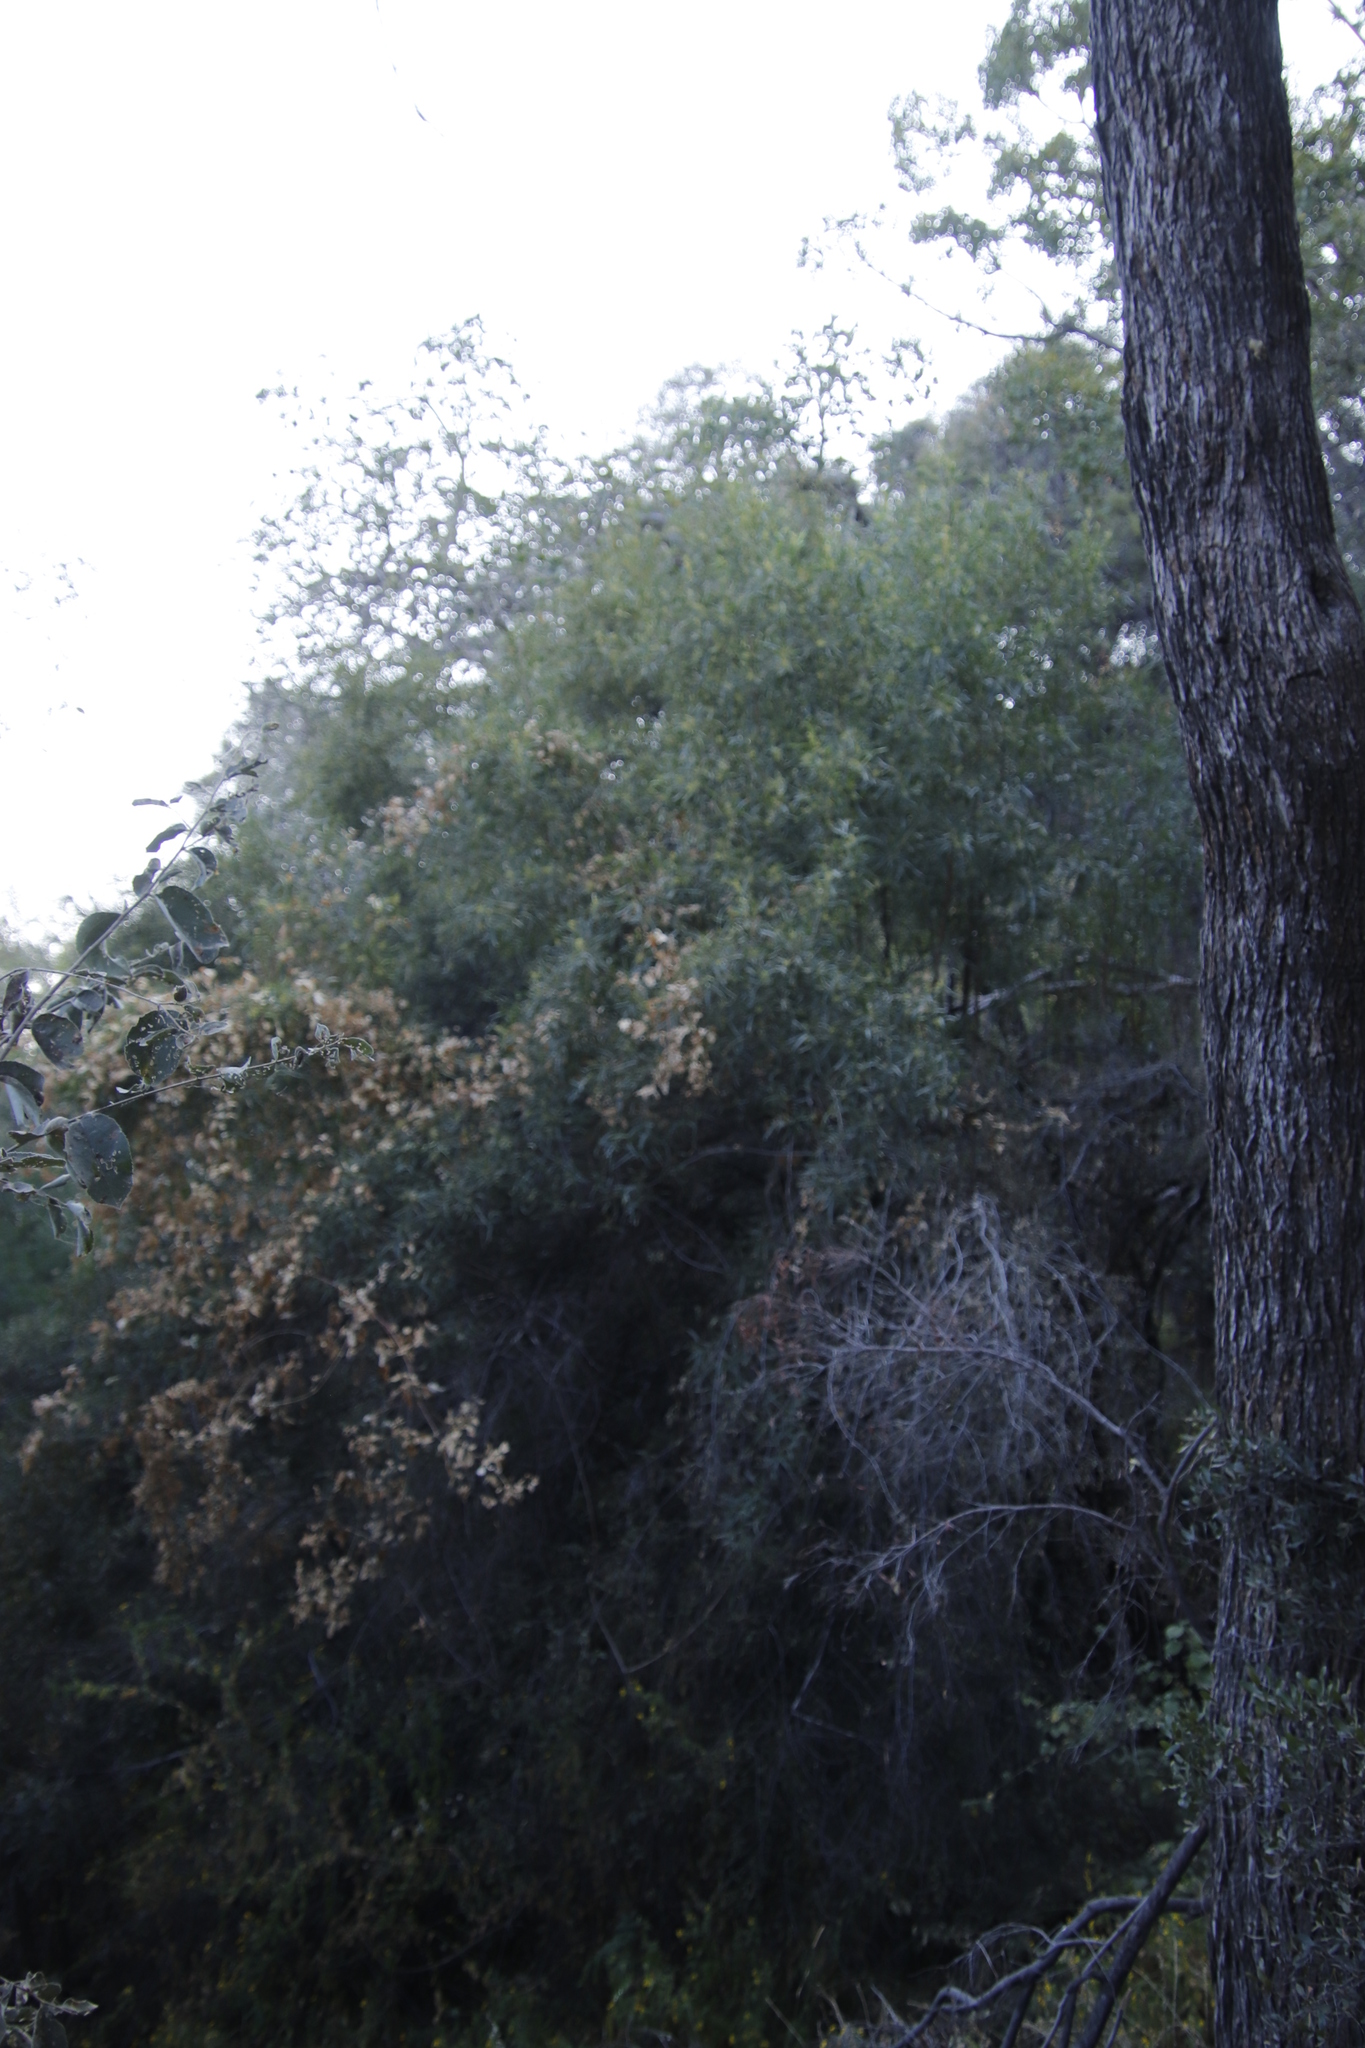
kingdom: Plantae
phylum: Tracheophyta
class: Magnoliopsida
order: Sapindales
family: Anacardiaceae
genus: Searsia
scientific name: Searsia lancea
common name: Cashew
